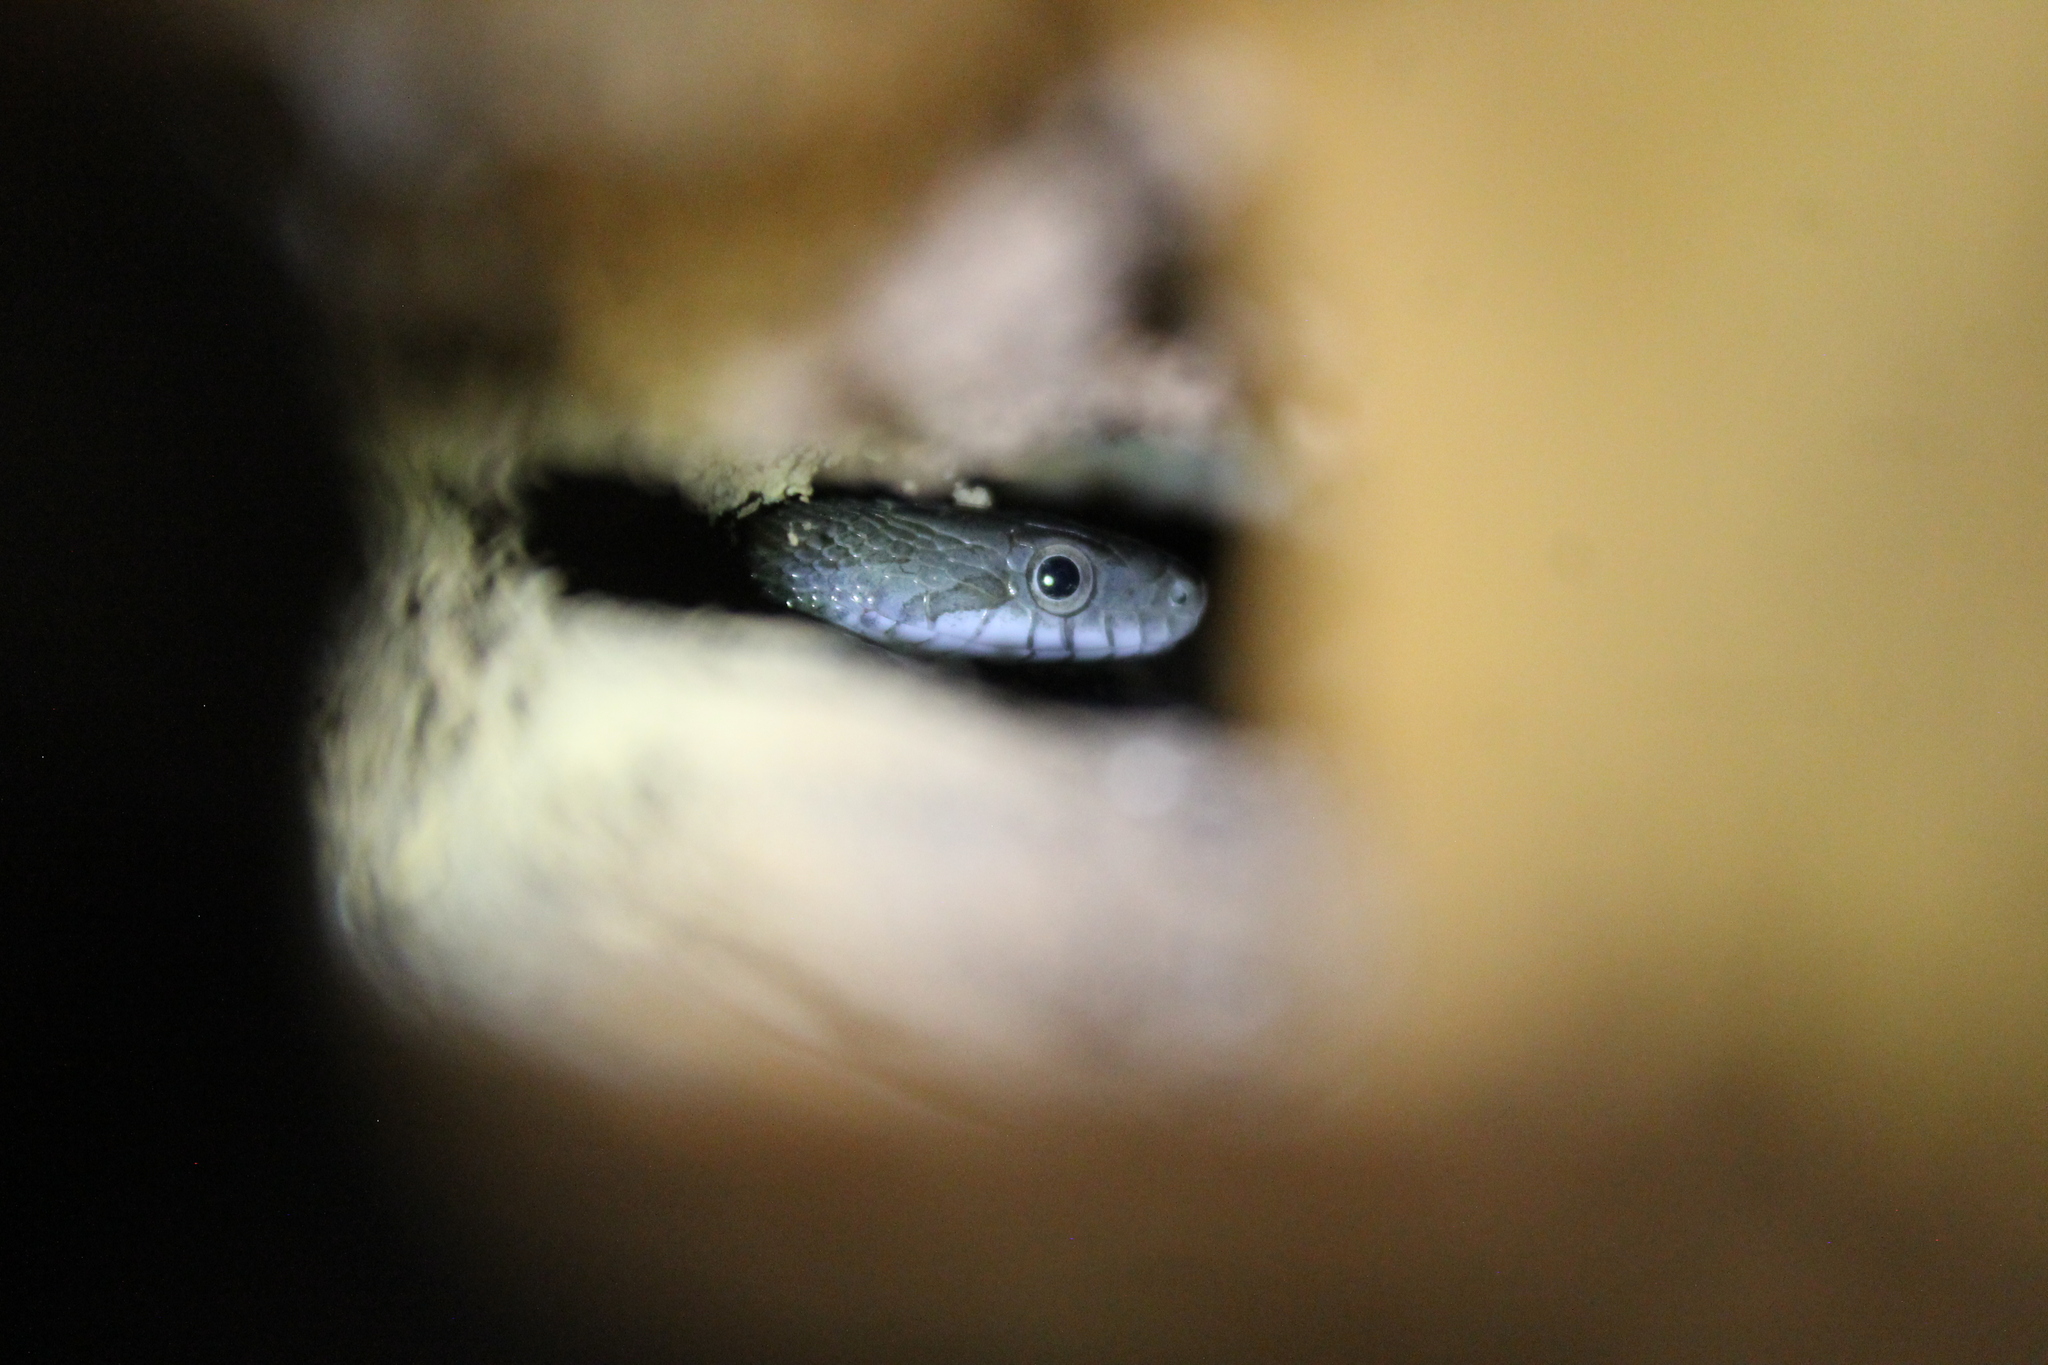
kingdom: Animalia
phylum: Chordata
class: Squamata
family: Colubridae
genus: Pantherophis
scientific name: Pantherophis spiloides
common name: Gray rat snake
